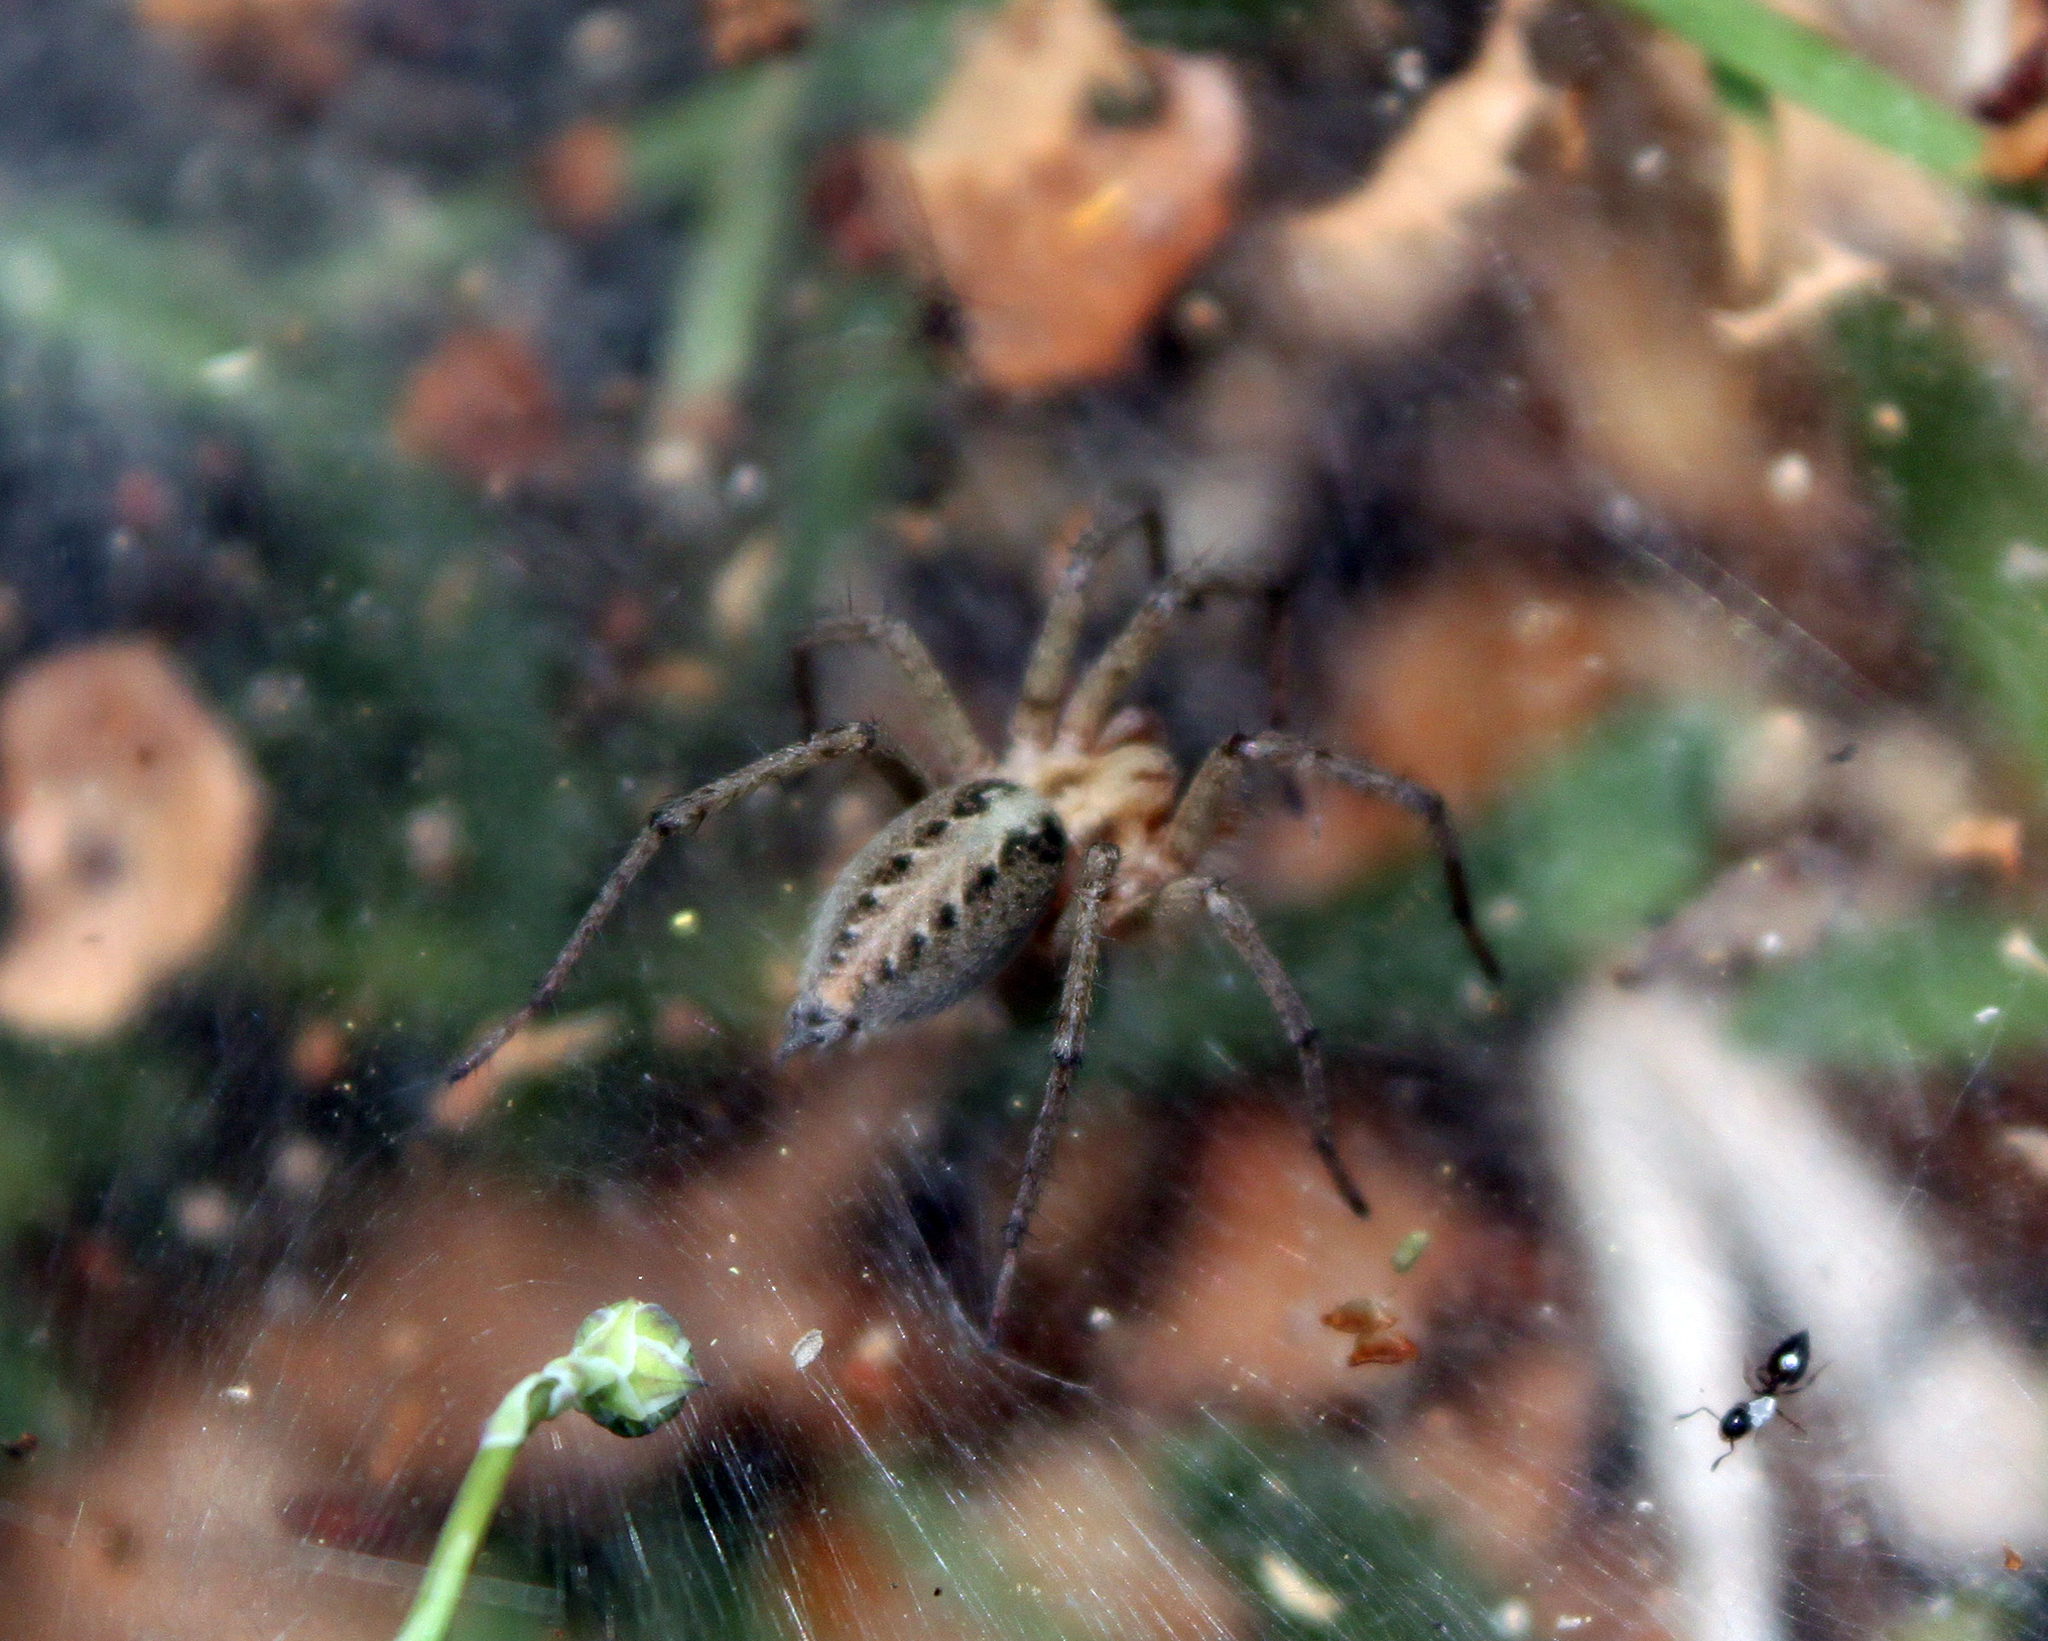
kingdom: Animalia
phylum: Arthropoda
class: Arachnida
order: Araneae
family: Agelenidae
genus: Agelena
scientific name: Agelena labyrinthica
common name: Labyrinth spider
